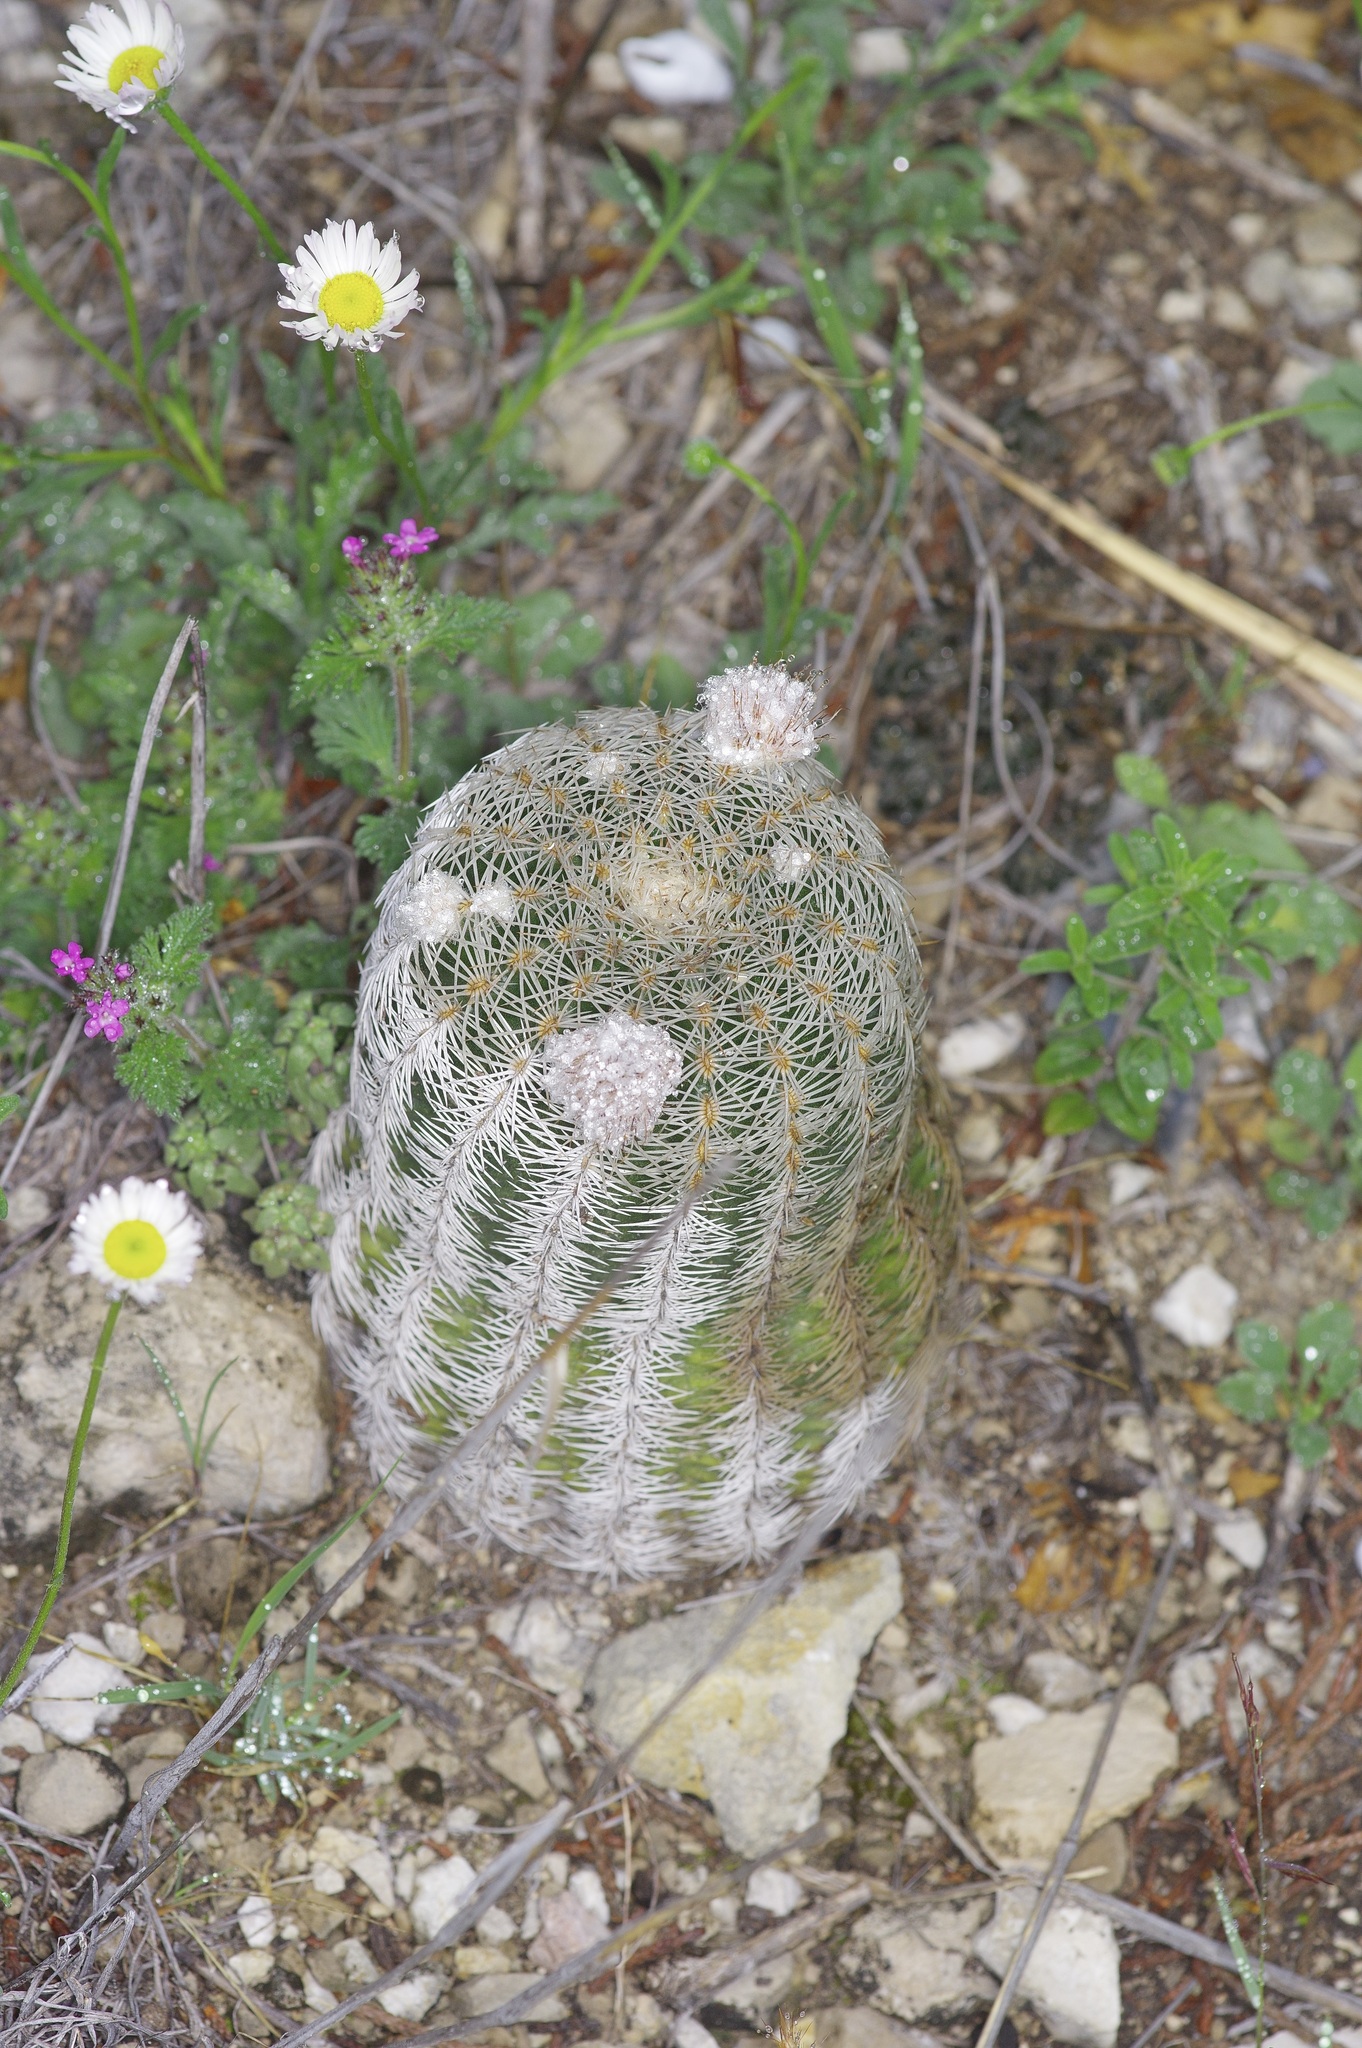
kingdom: Plantae
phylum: Tracheophyta
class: Magnoliopsida
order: Caryophyllales
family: Cactaceae
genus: Echinocereus
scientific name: Echinocereus reichenbachii
